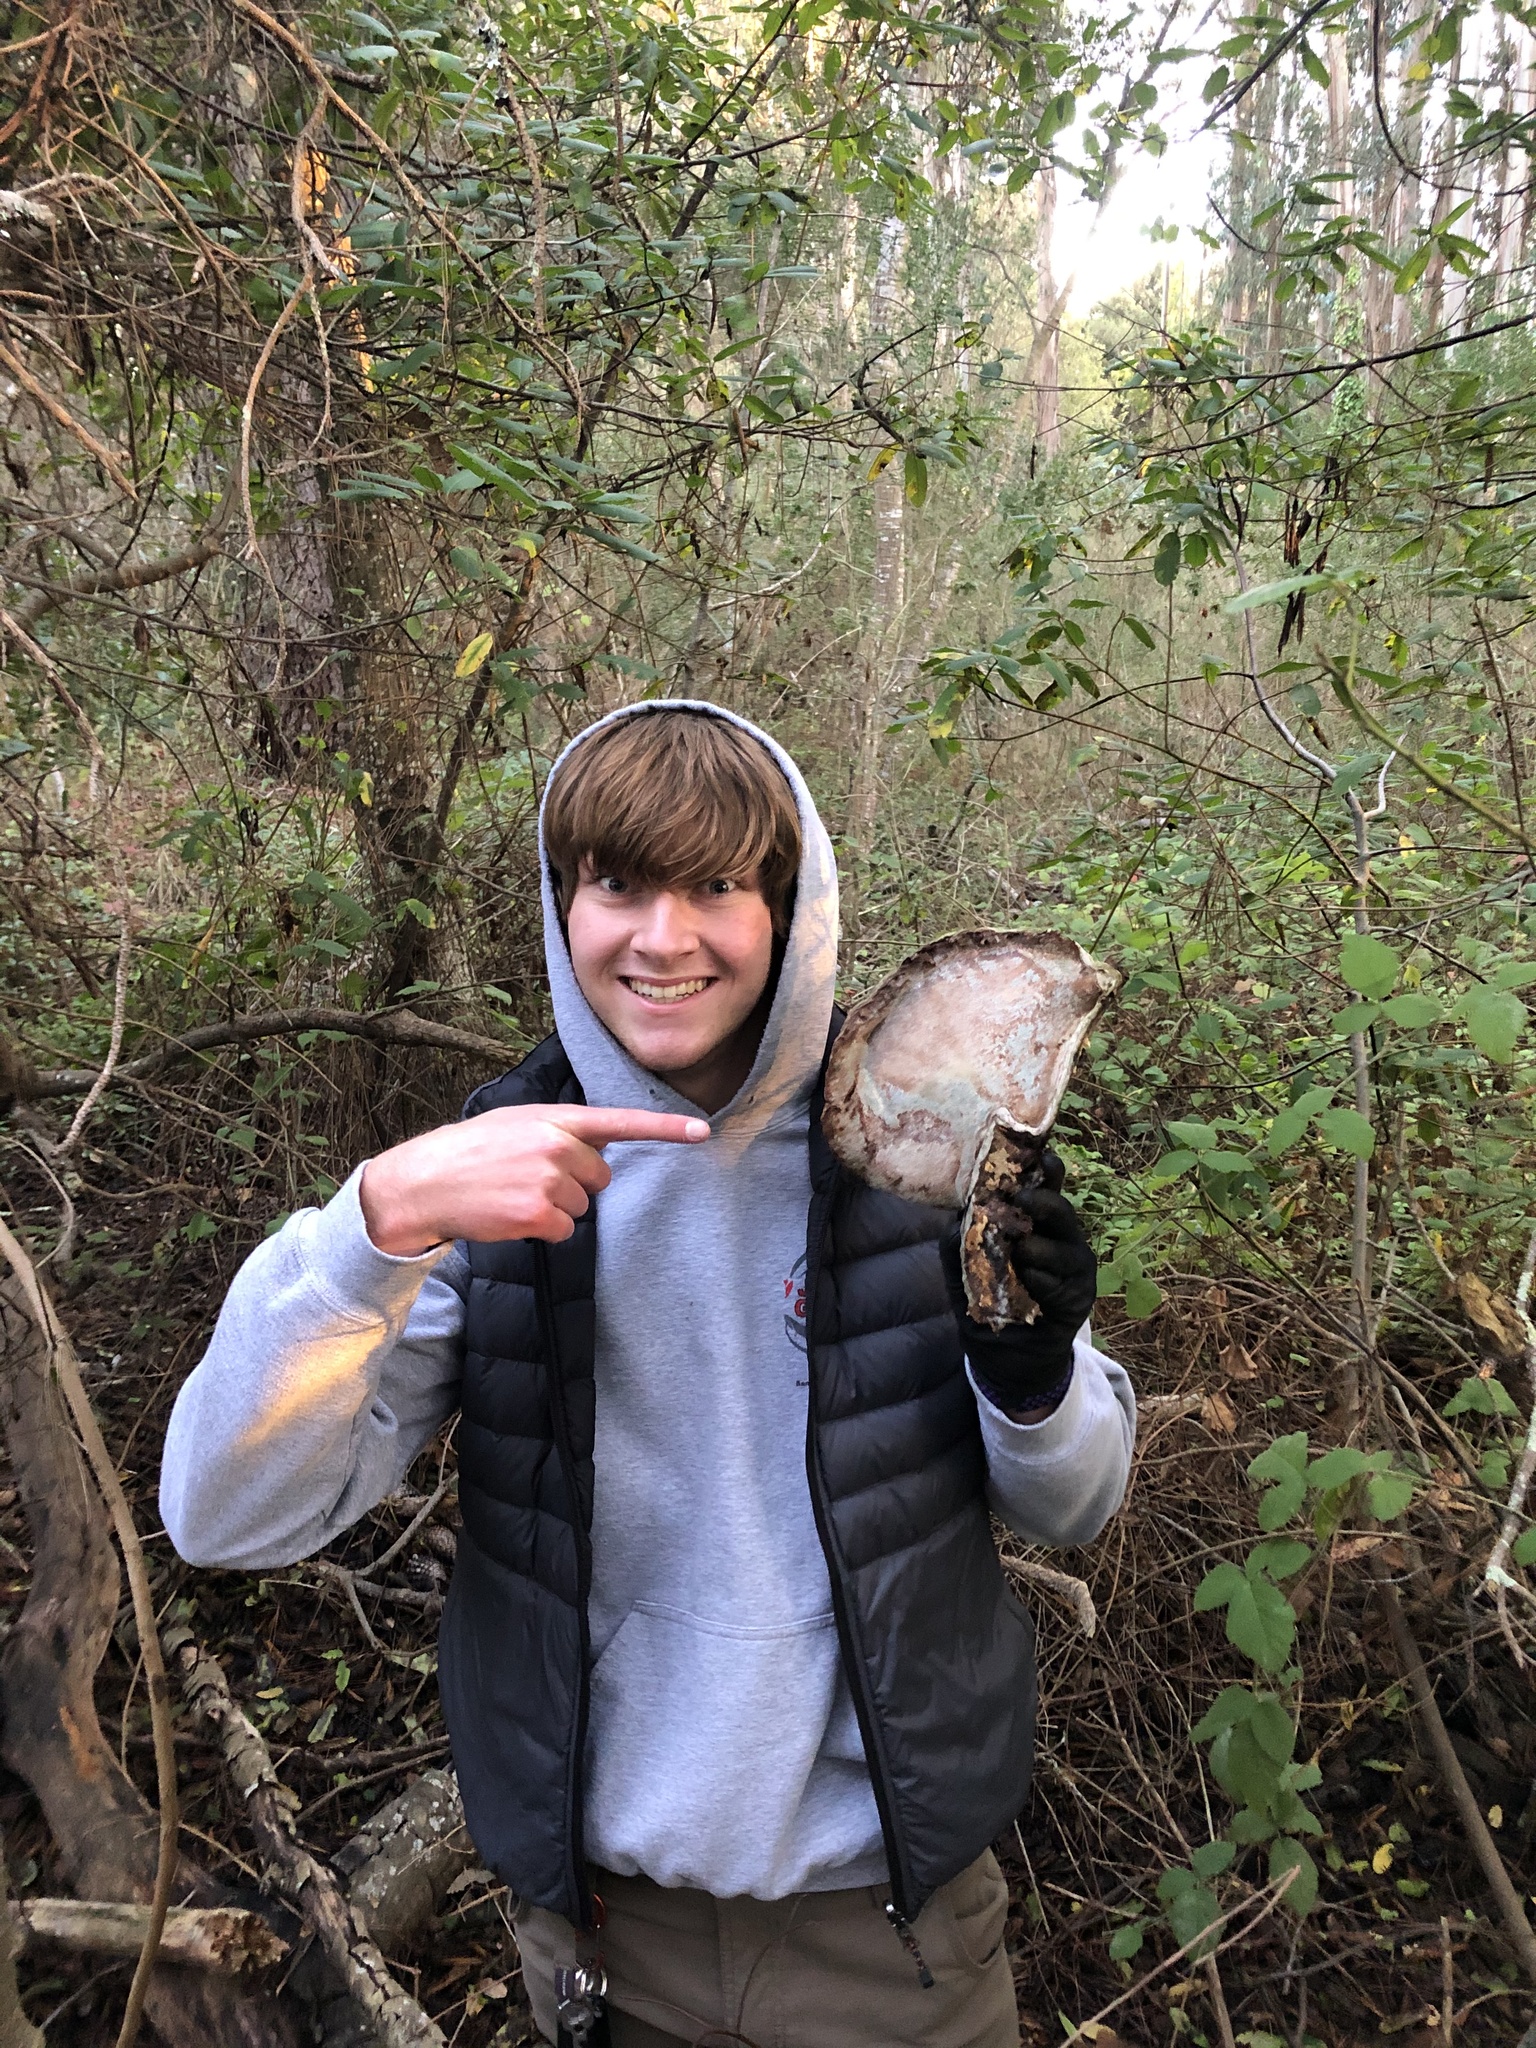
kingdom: Fungi
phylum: Basidiomycota
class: Agaricomycetes
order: Polyporales
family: Polyporaceae
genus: Ganoderma
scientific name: Ganoderma brownii
